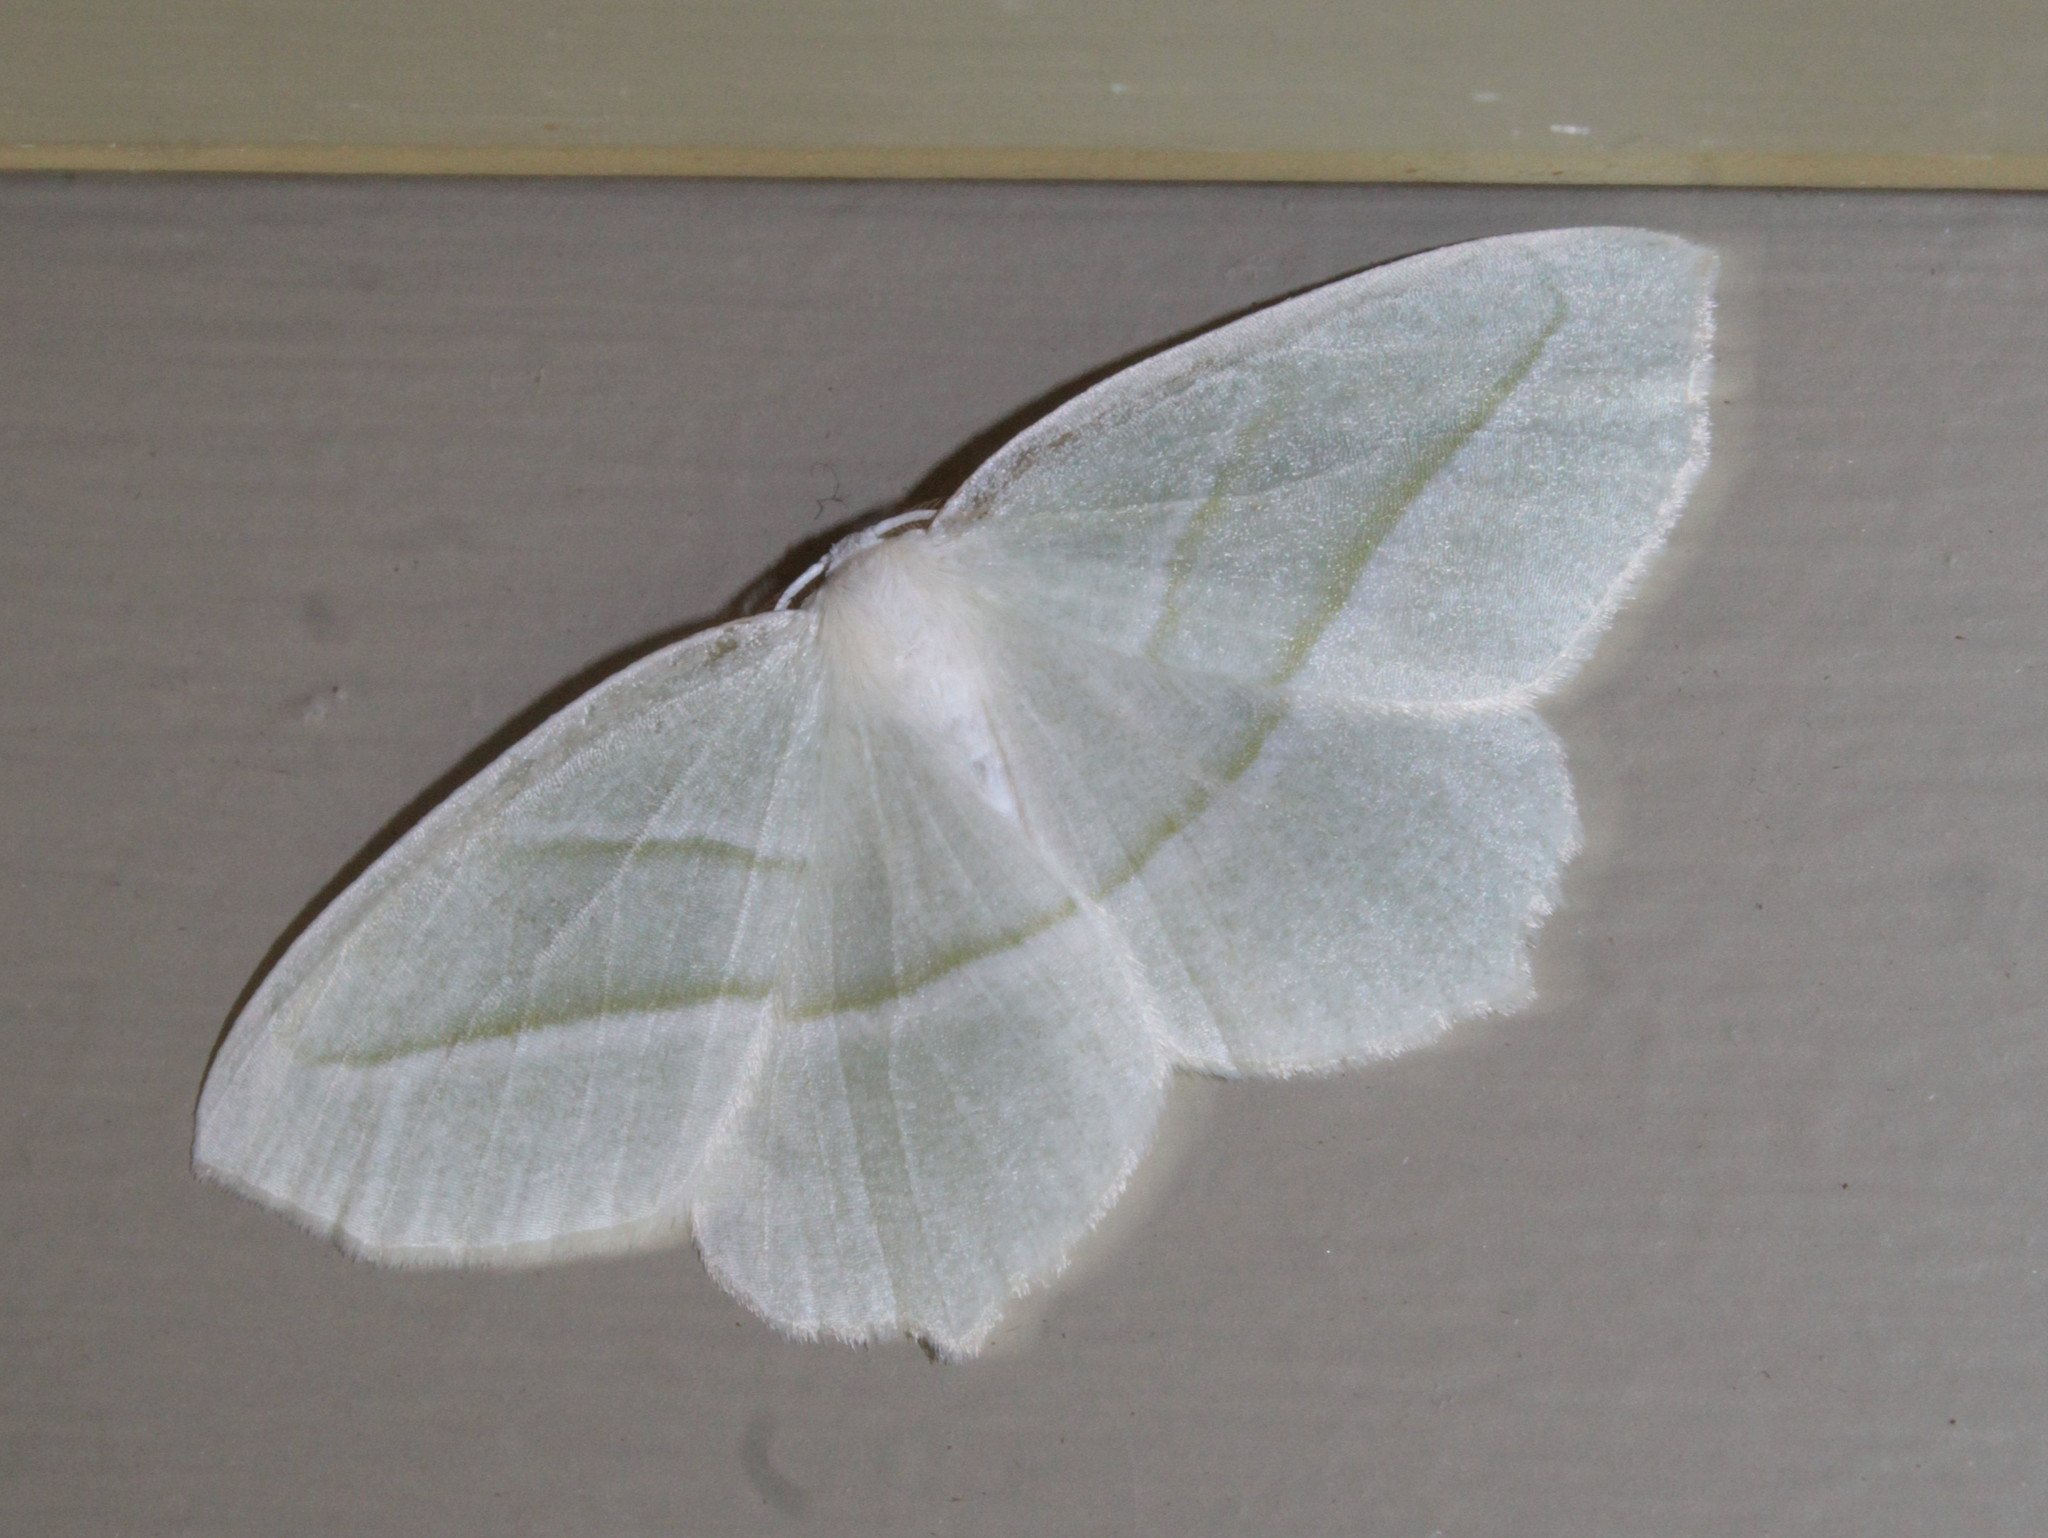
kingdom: Animalia
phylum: Arthropoda
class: Insecta
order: Lepidoptera
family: Geometridae
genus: Campaea
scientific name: Campaea perlata
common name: Fringed looper
